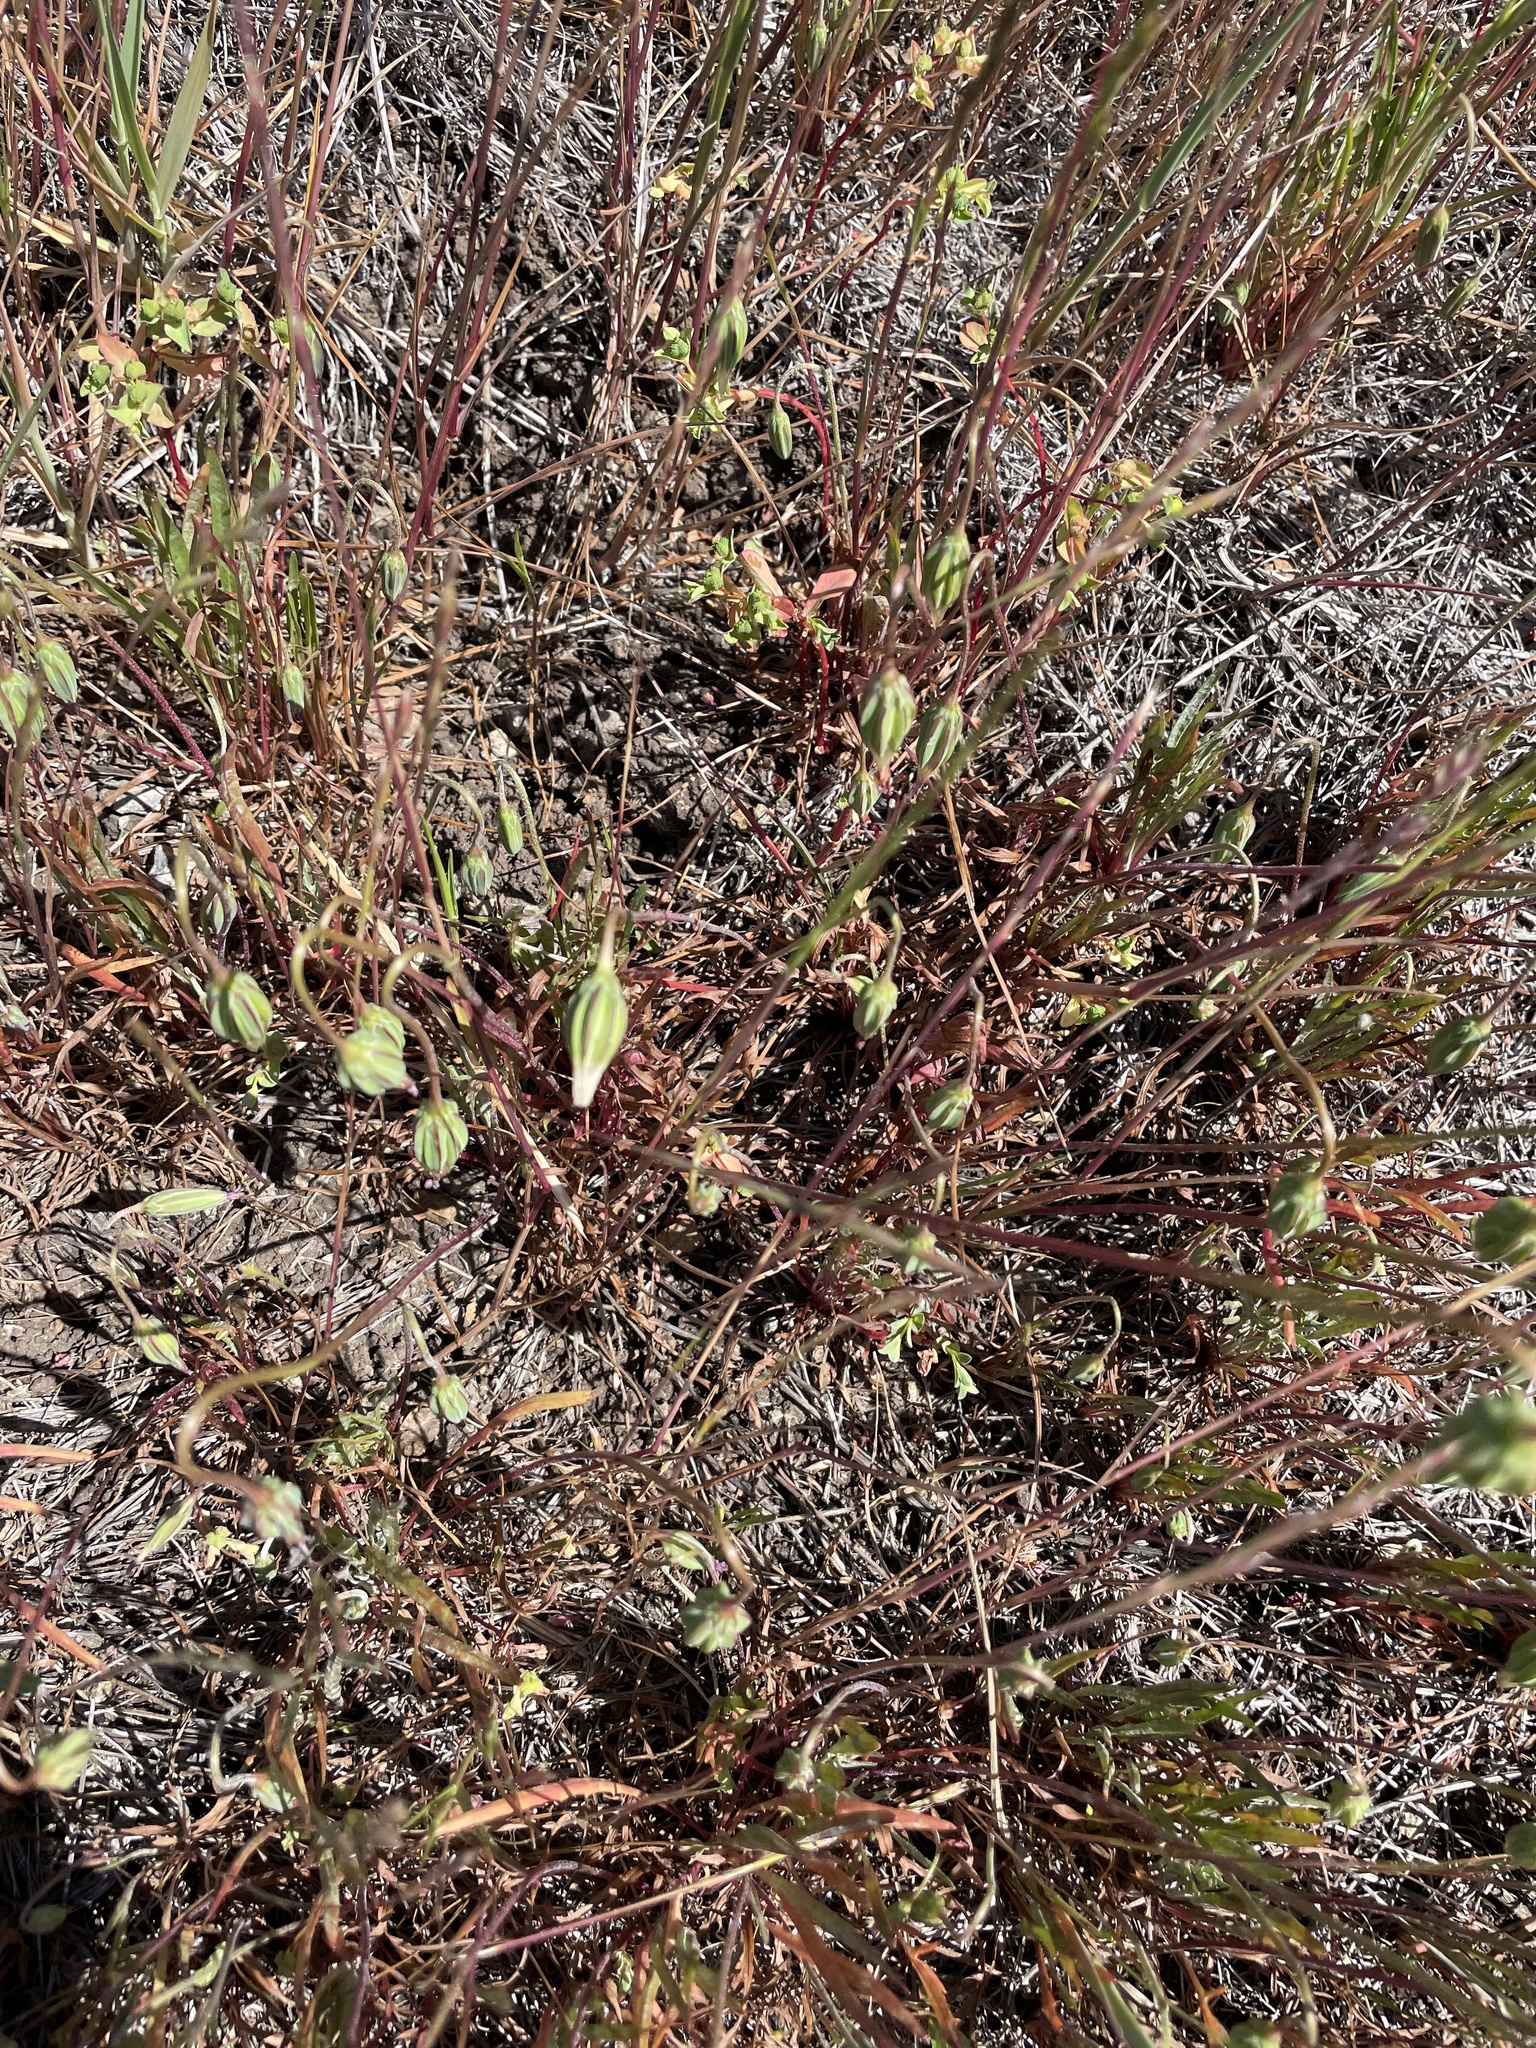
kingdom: Plantae
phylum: Tracheophyta
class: Magnoliopsida
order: Asterales
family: Asteraceae
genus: Microseris
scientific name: Microseris douglasii
